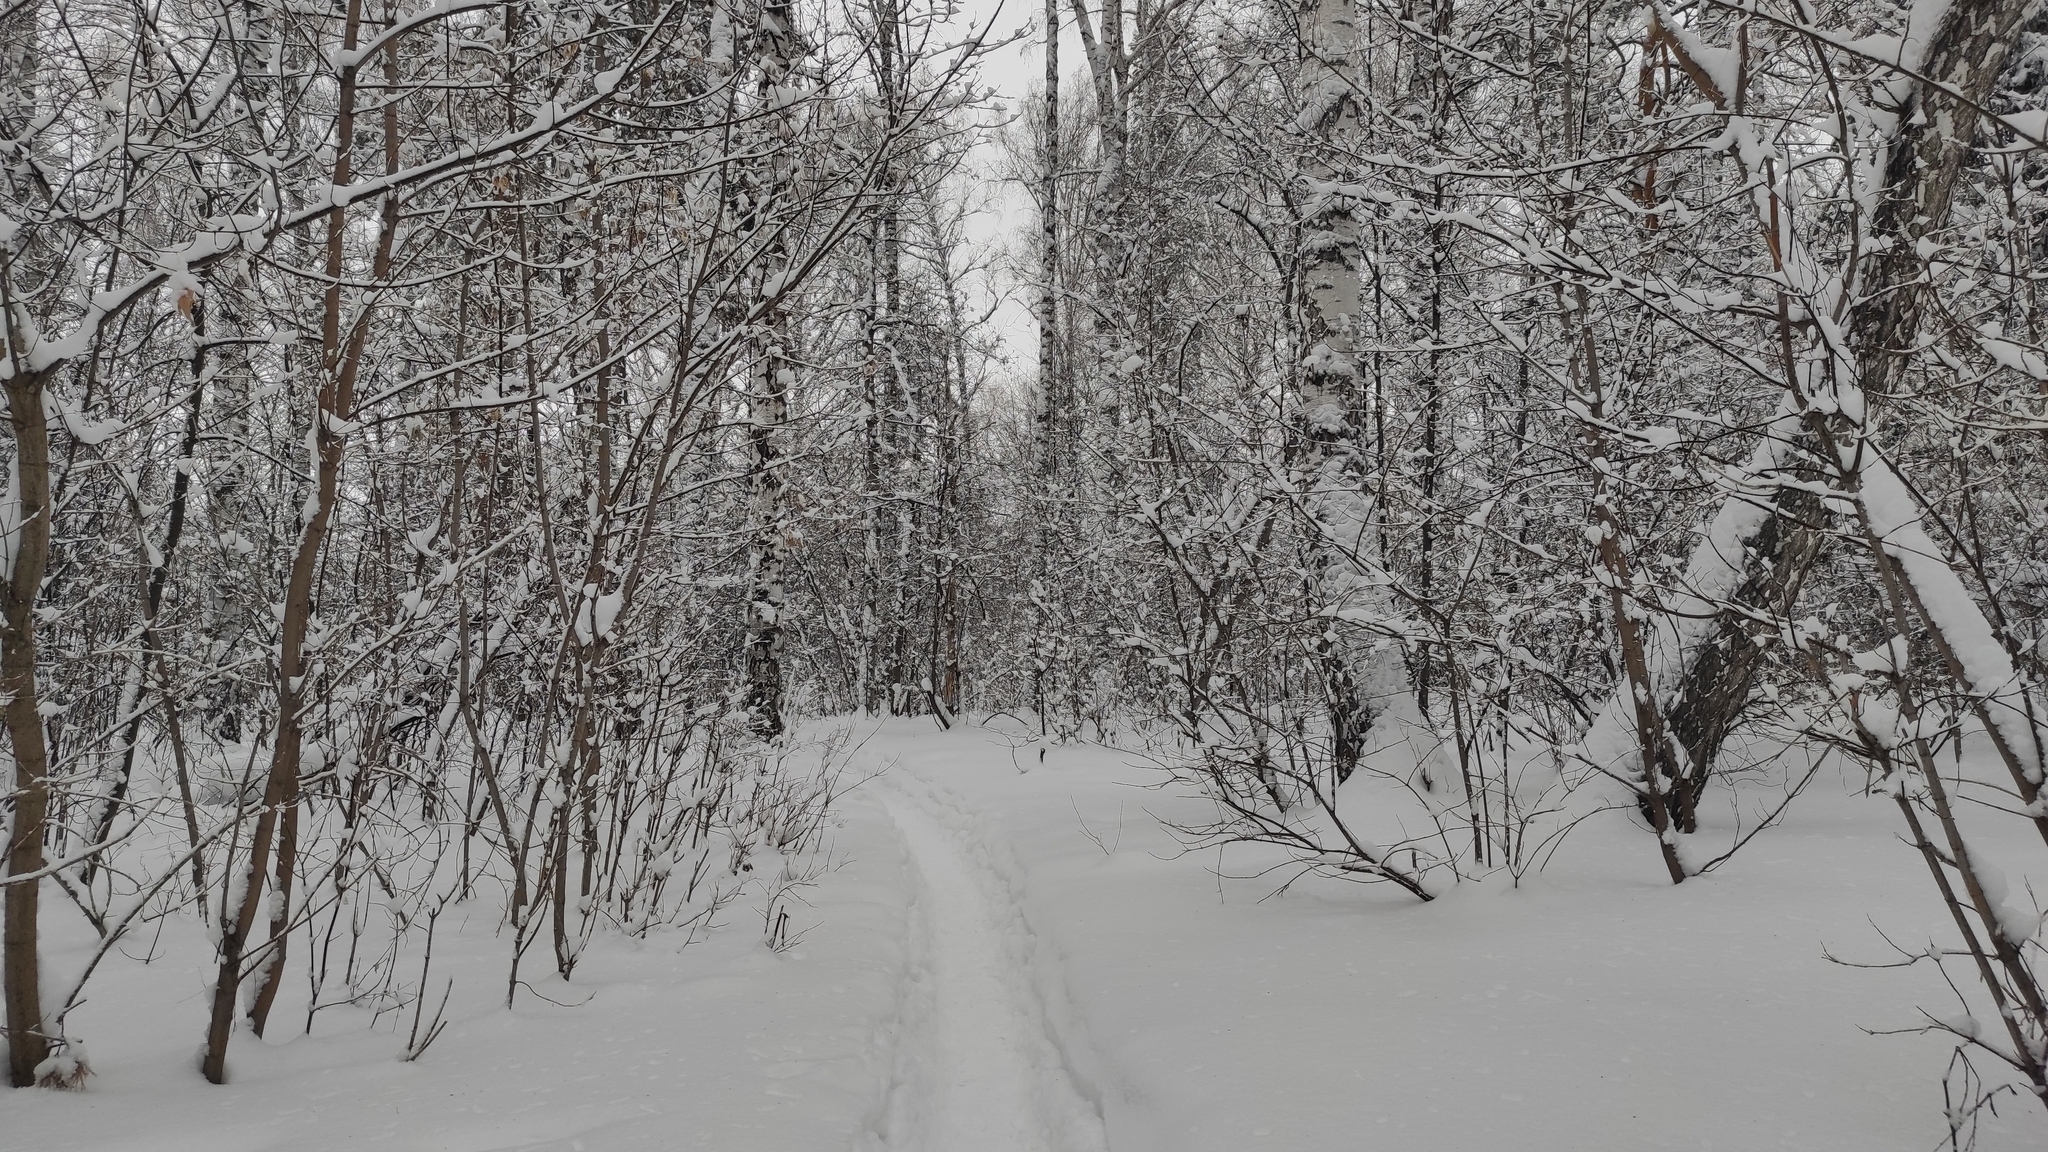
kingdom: Plantae
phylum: Tracheophyta
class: Magnoliopsida
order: Fagales
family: Betulaceae
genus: Betula
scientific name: Betula pendula
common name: Silver birch
